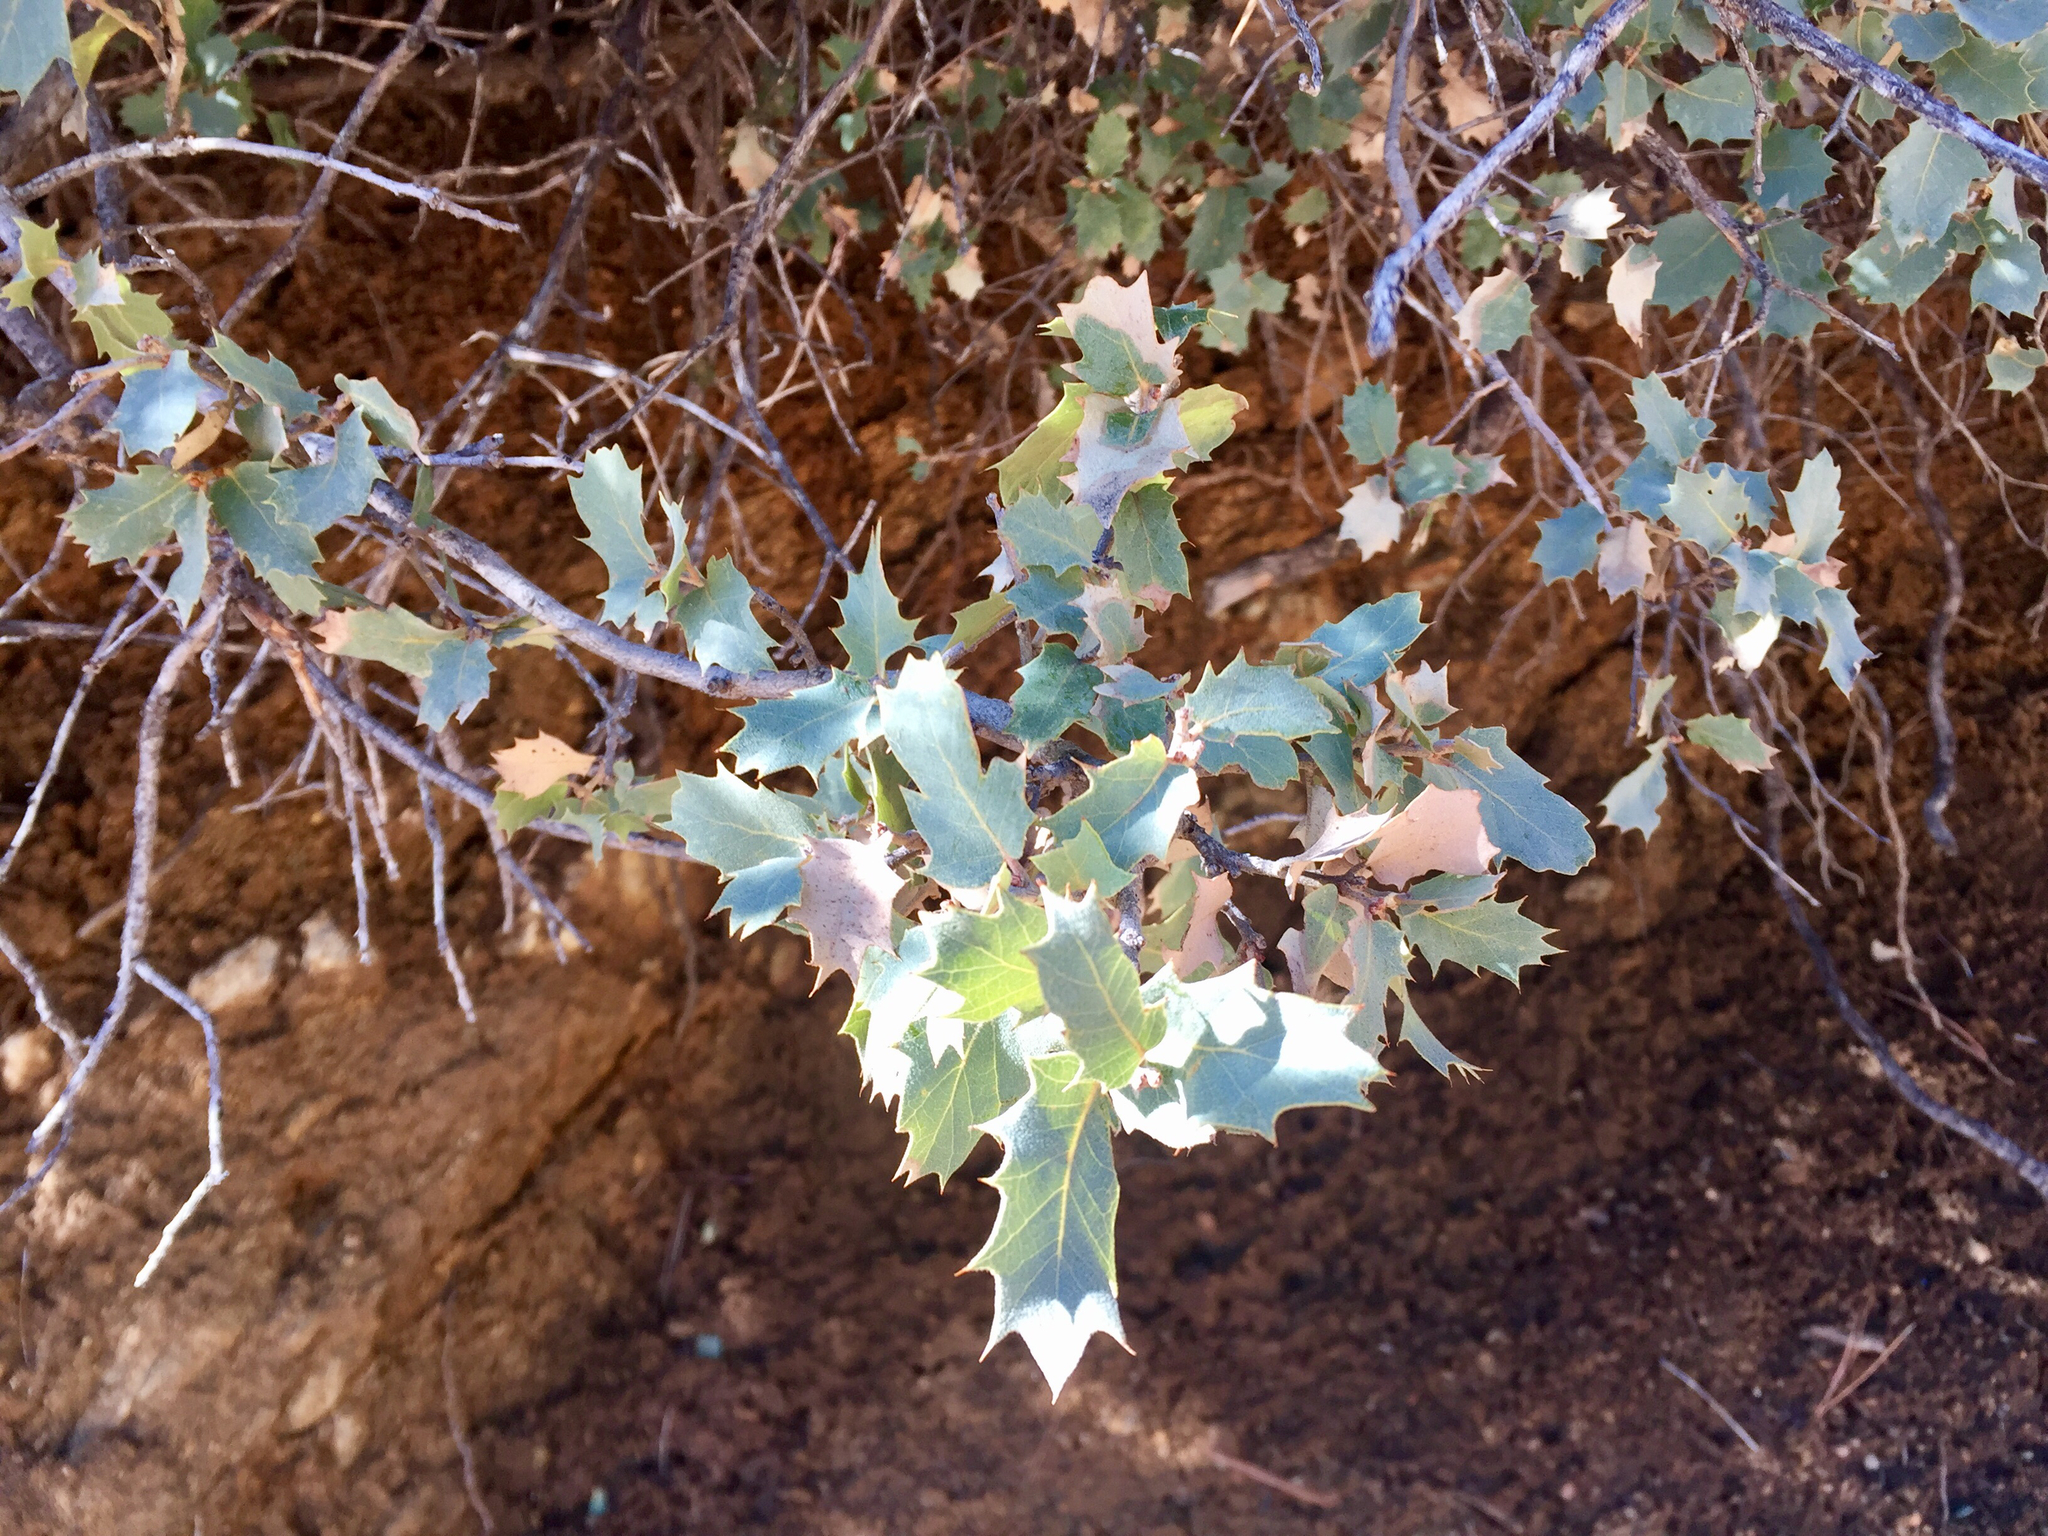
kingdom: Plantae
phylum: Tracheophyta
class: Magnoliopsida
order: Fagales
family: Fagaceae
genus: Quercus
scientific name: Quercus turbinella
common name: Sonoran scrub oak
